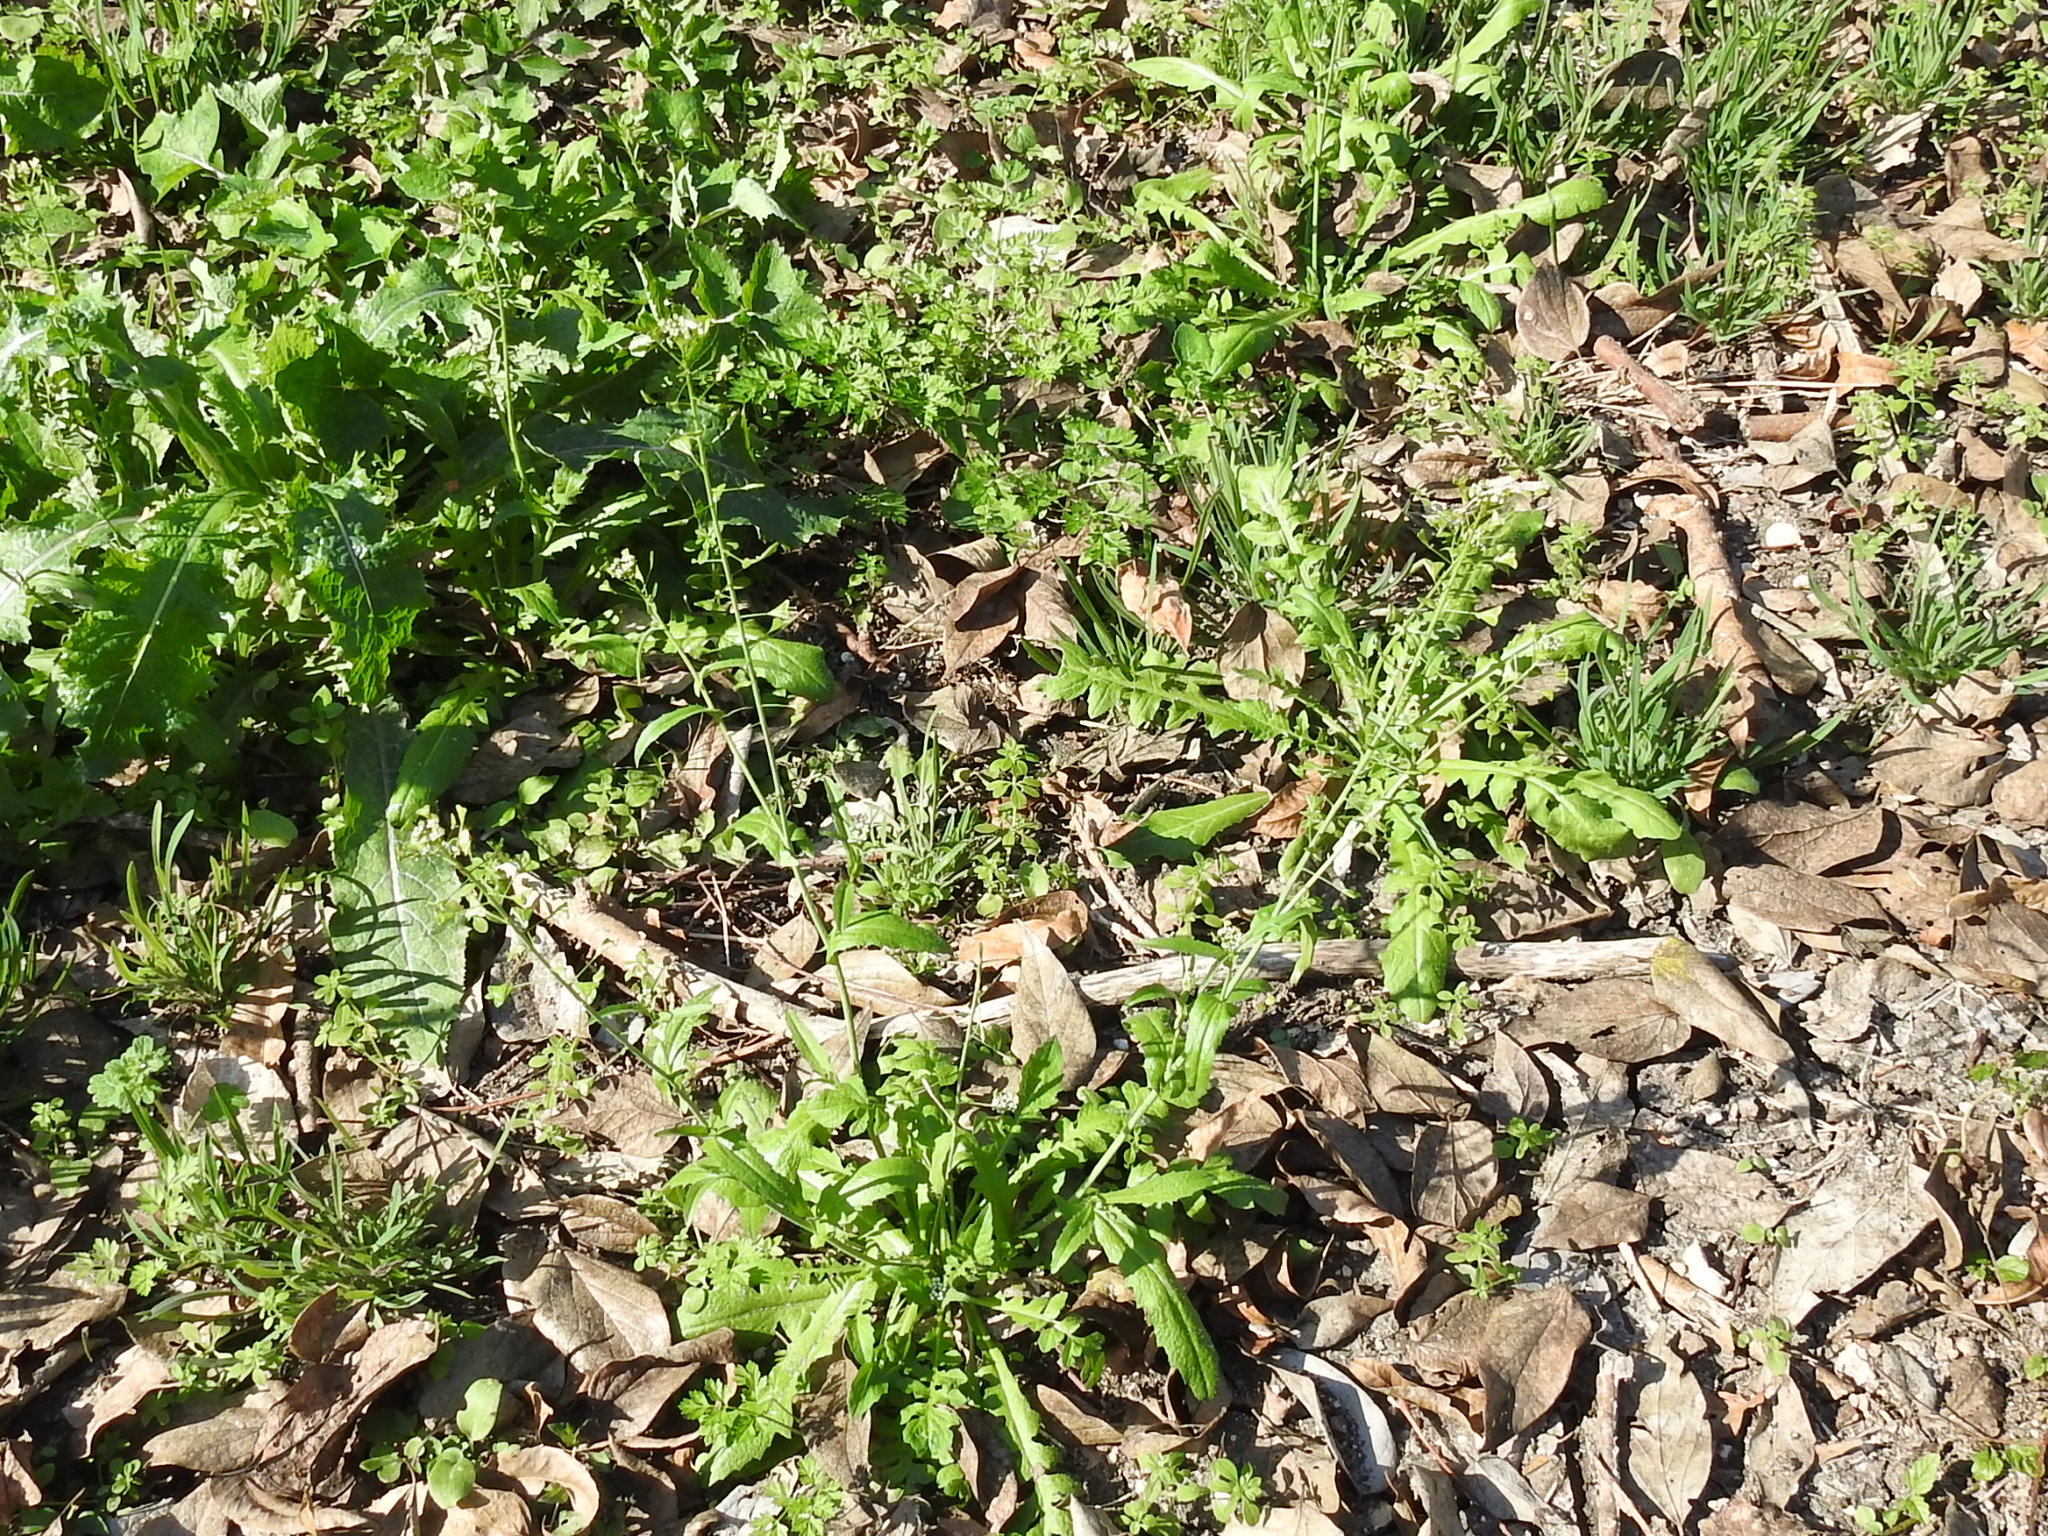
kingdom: Plantae
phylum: Tracheophyta
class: Magnoliopsida
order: Brassicales
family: Brassicaceae
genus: Capsella
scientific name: Capsella bursa-pastoris
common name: Shepherd's purse
